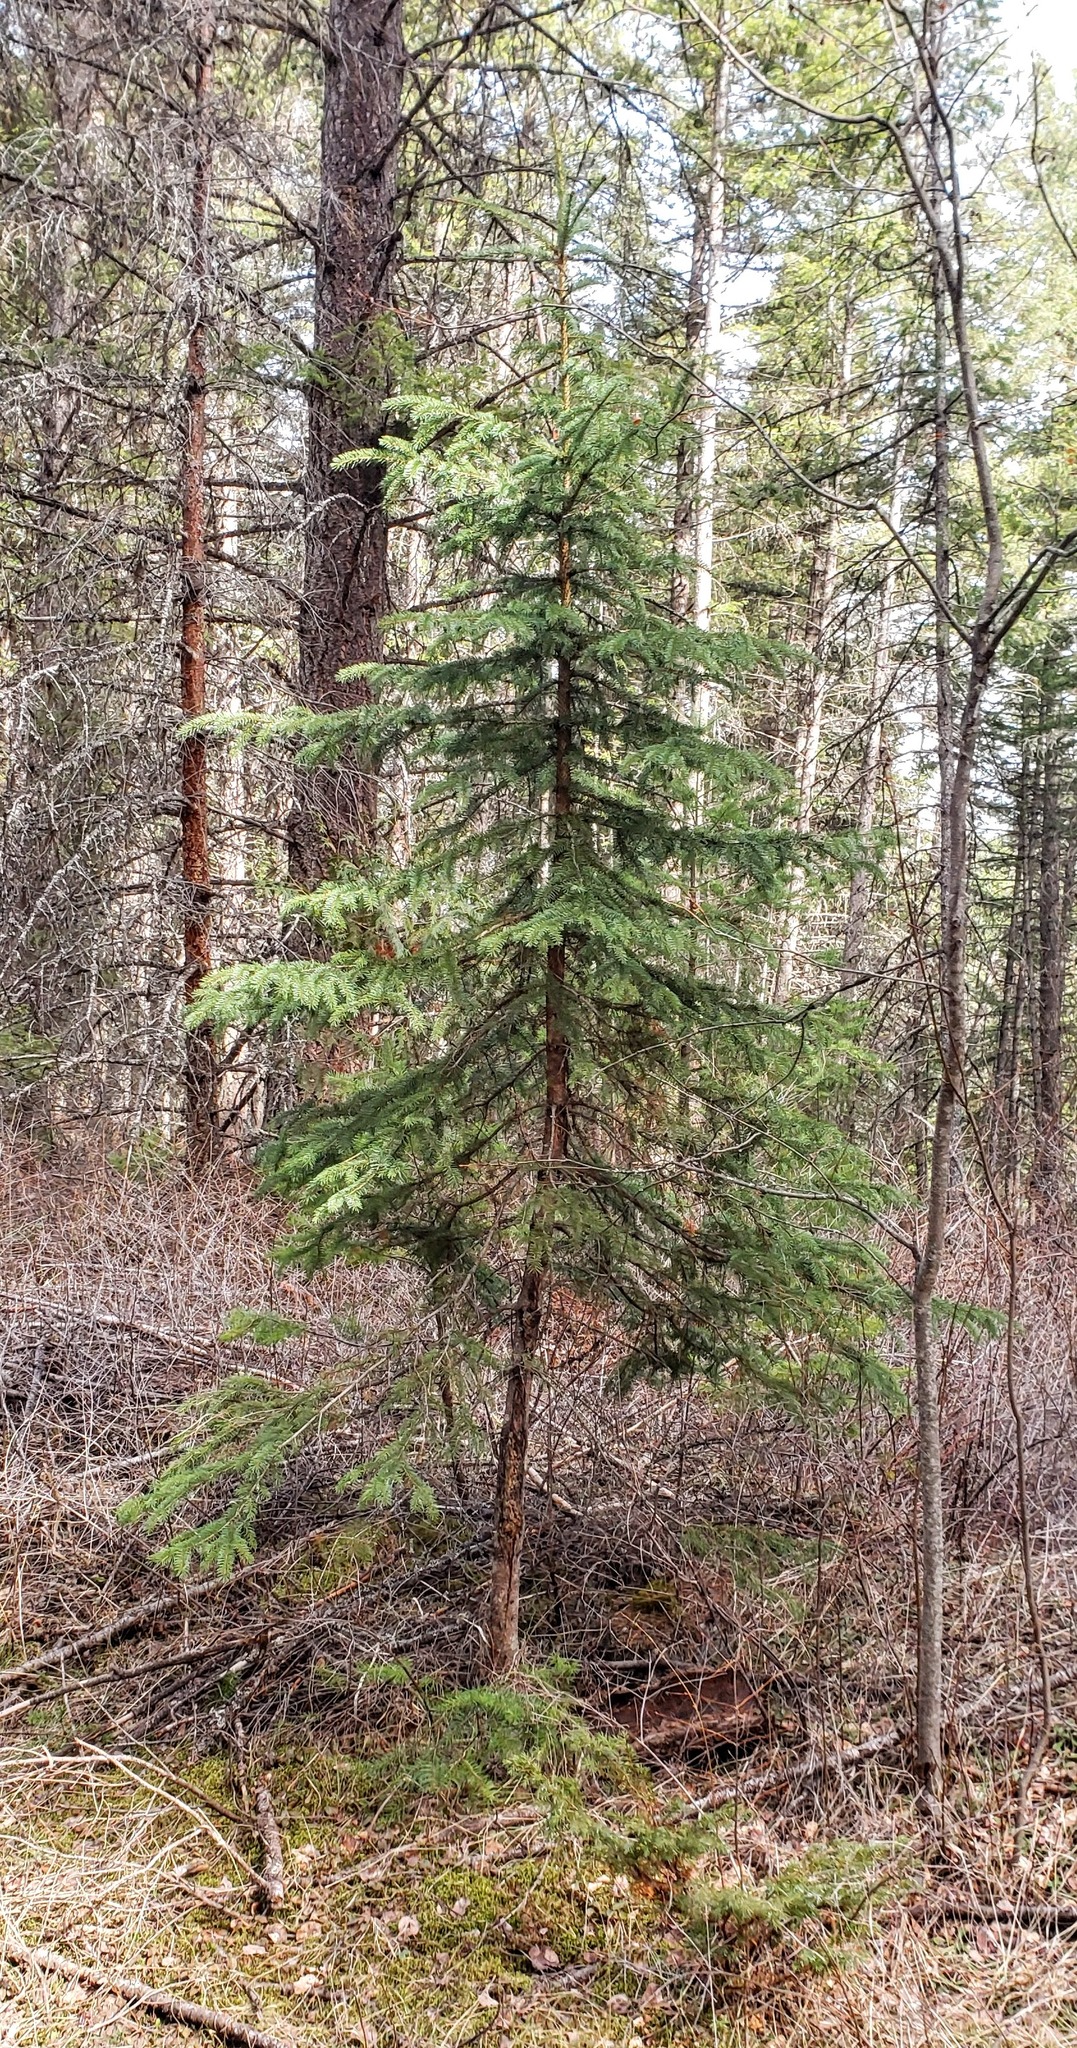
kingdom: Plantae
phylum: Tracheophyta
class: Pinopsida
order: Pinales
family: Pinaceae
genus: Picea
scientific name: Picea engelmannii
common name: Engelmann spruce
